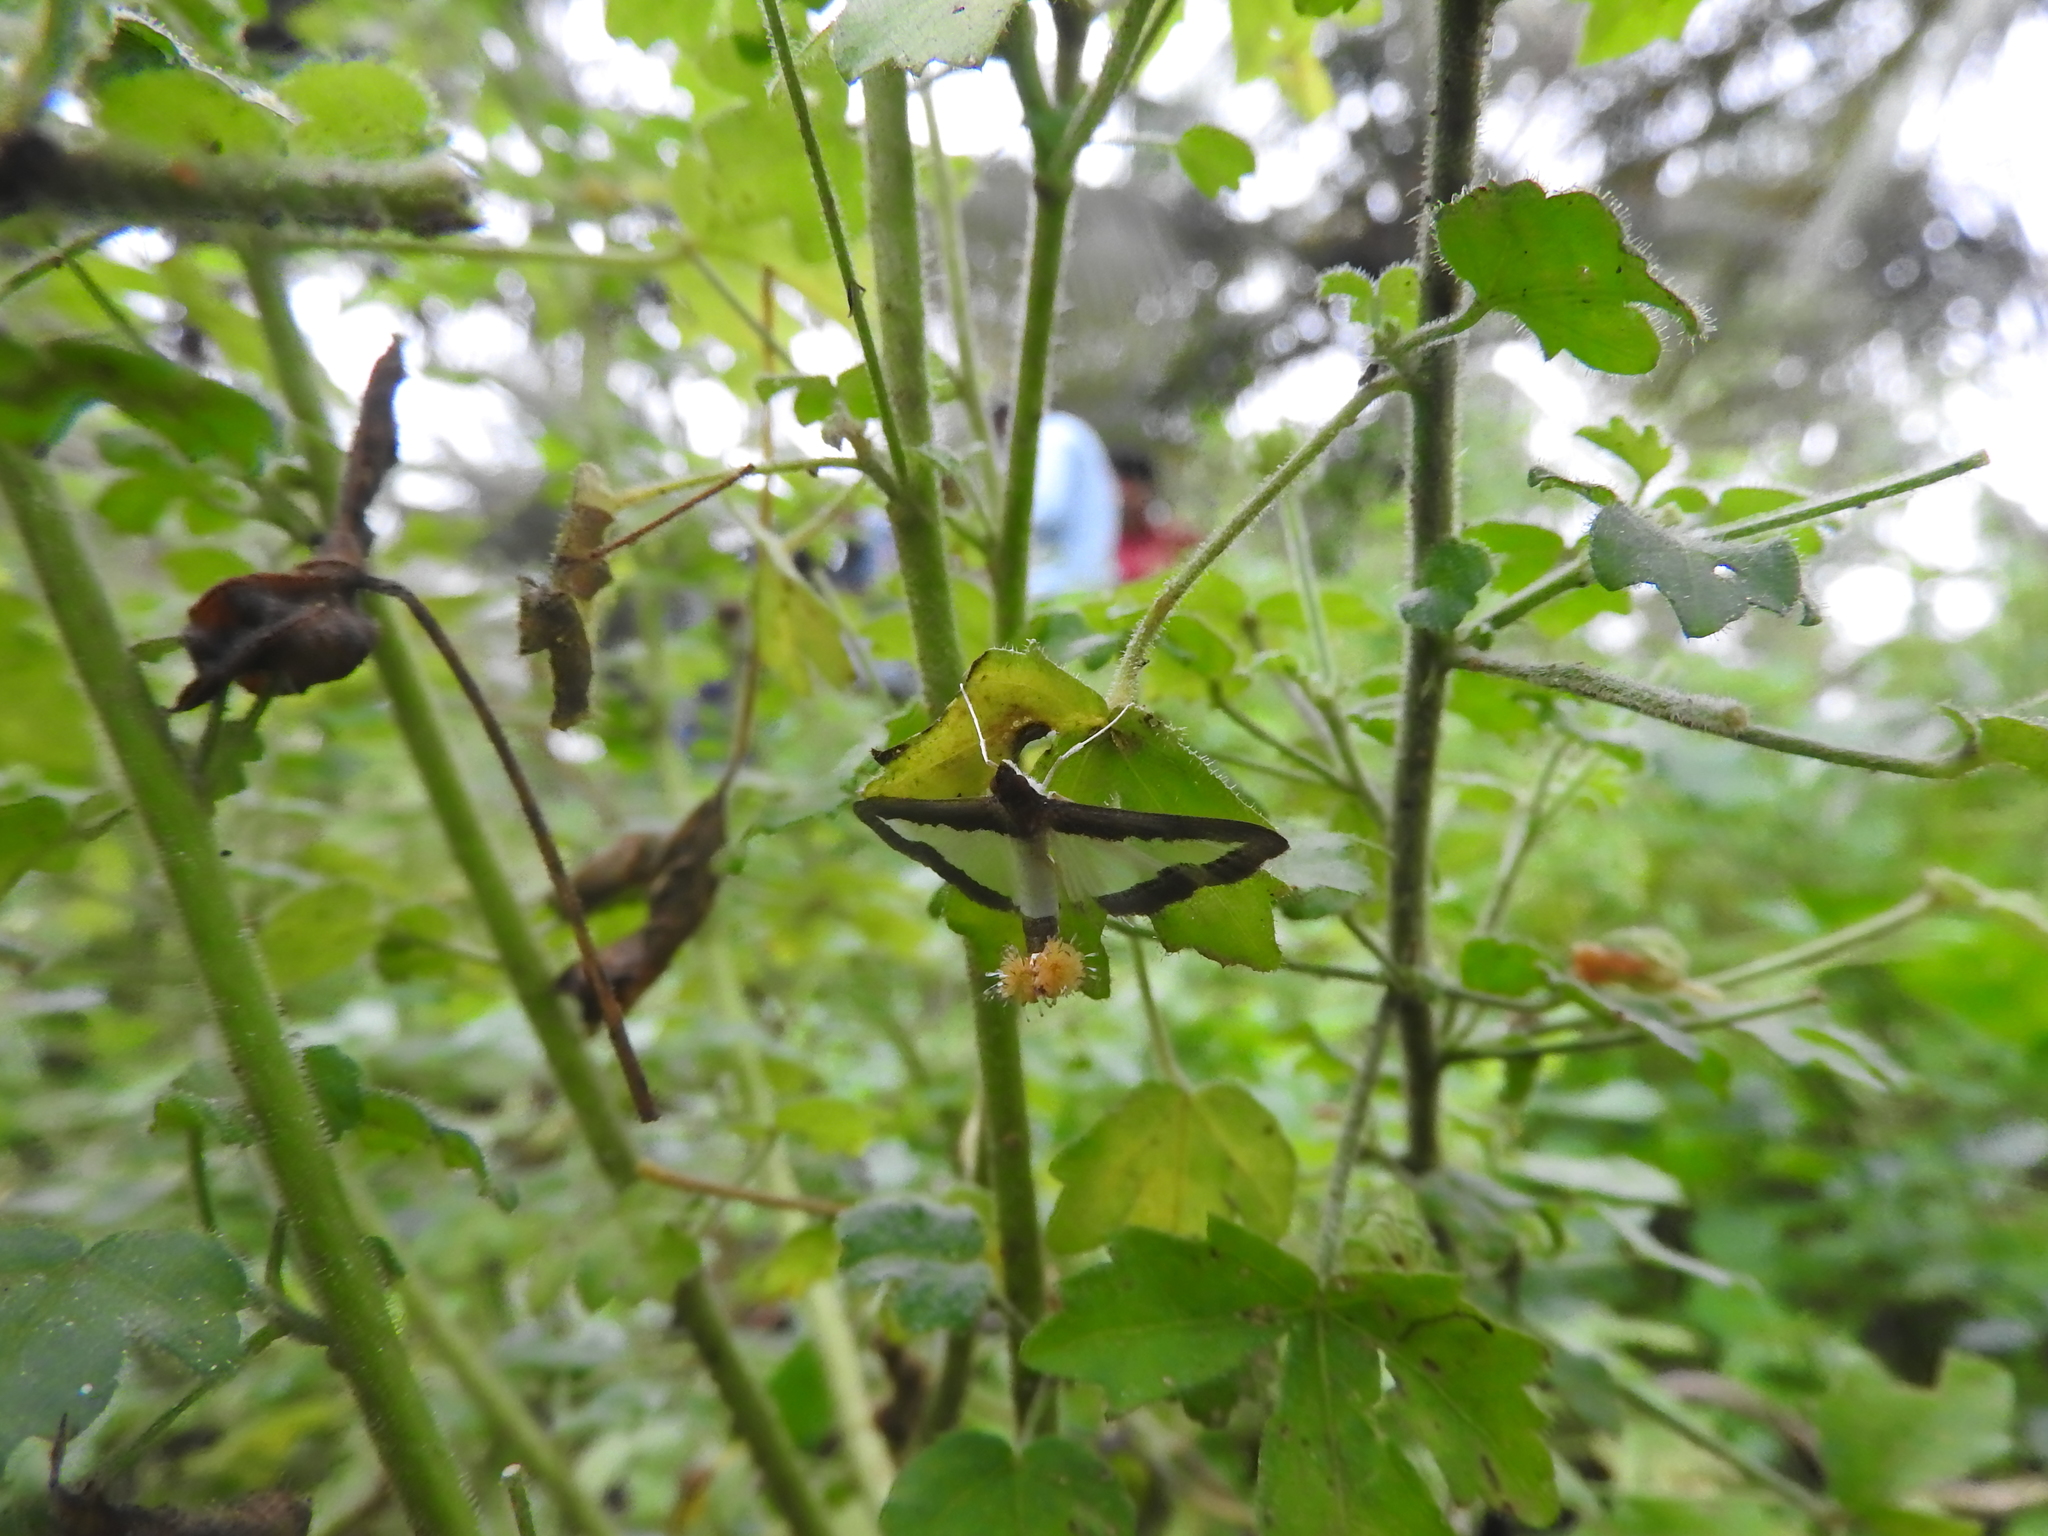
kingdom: Animalia
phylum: Arthropoda
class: Insecta
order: Lepidoptera
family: Crambidae
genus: Diaphania
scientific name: Diaphania indica
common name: Cucumber moth
